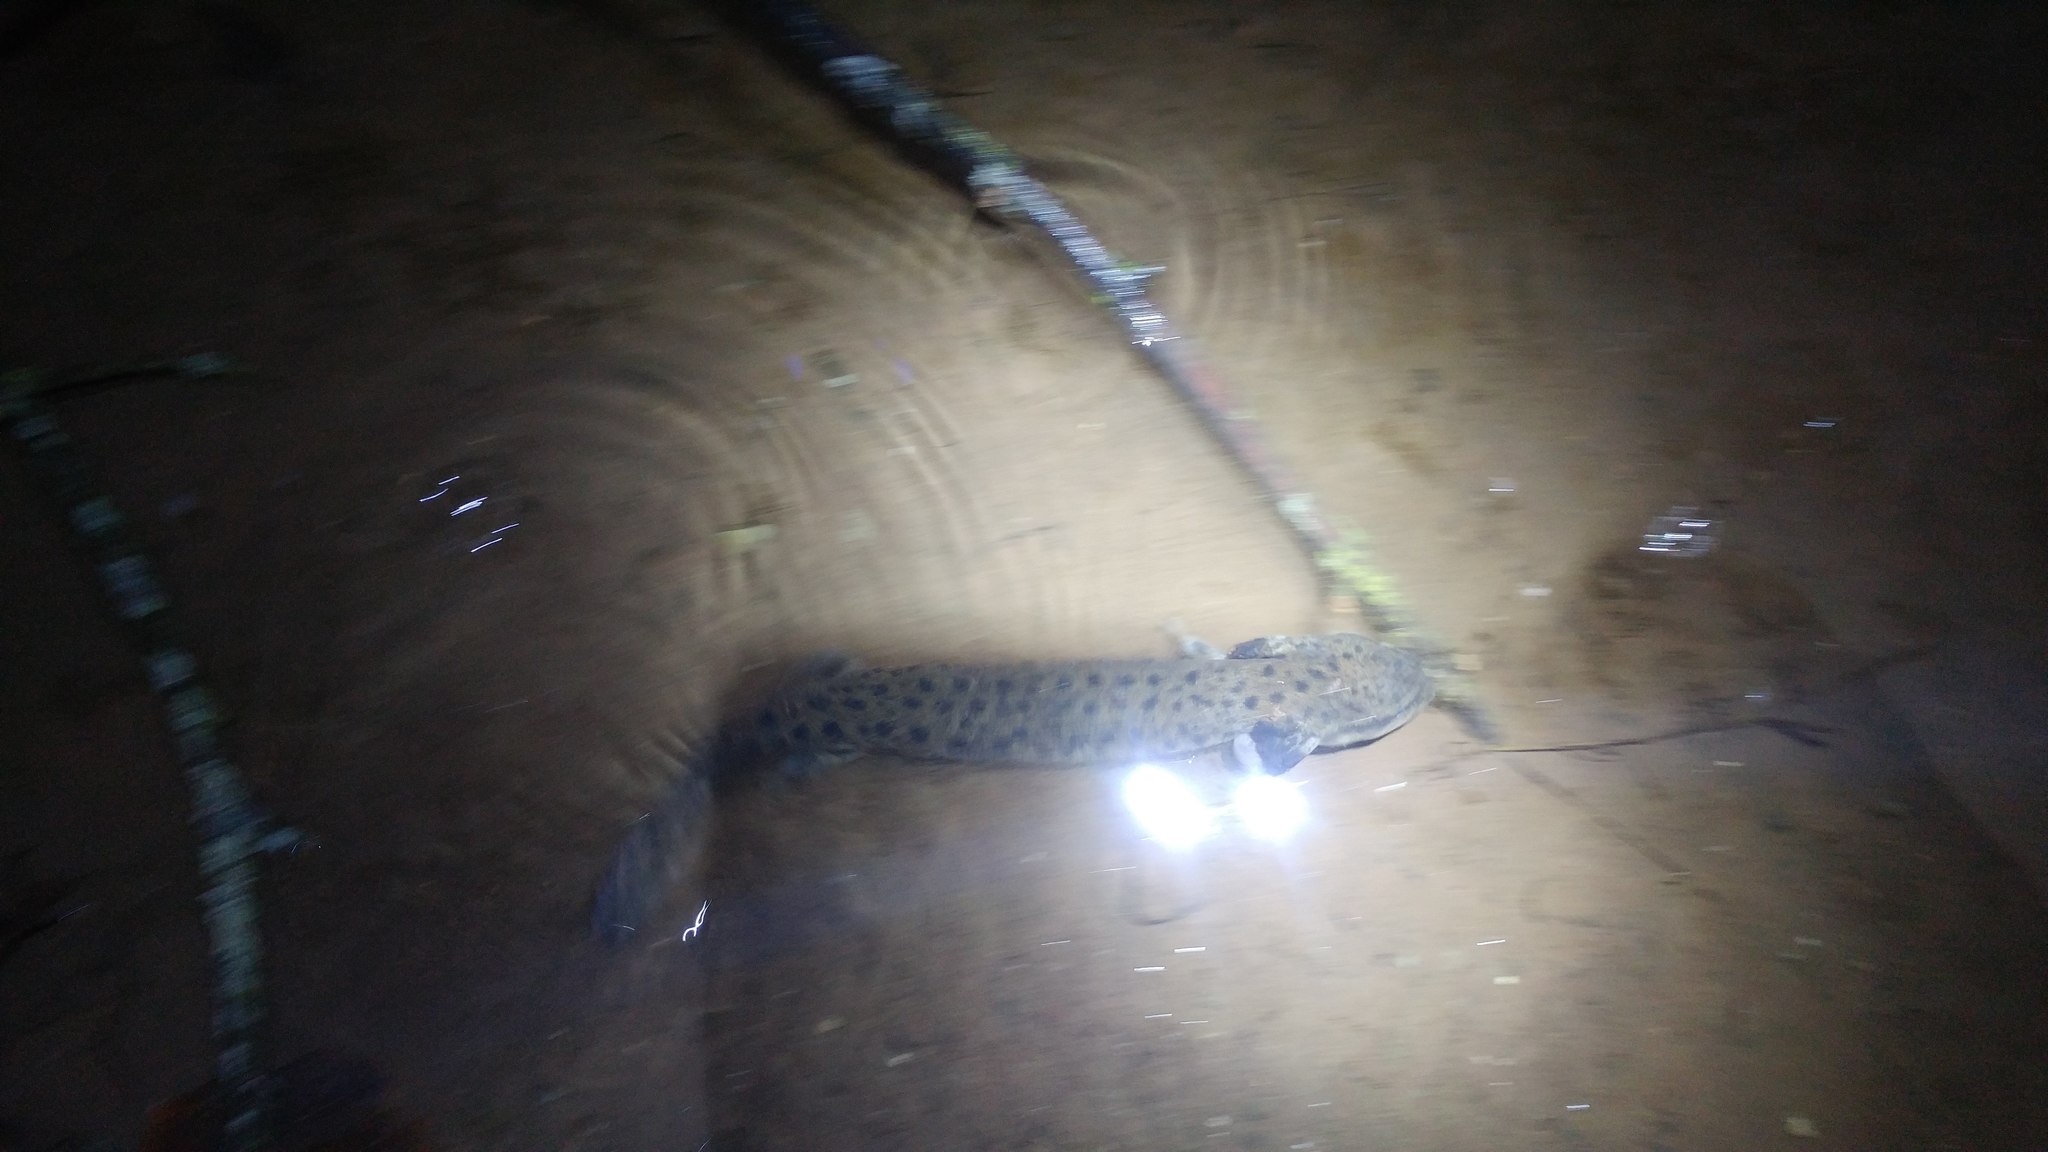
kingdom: Animalia
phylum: Chordata
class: Amphibia
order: Caudata
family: Proteidae
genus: Necturus
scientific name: Necturus maculosus
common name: Mudpuppy
